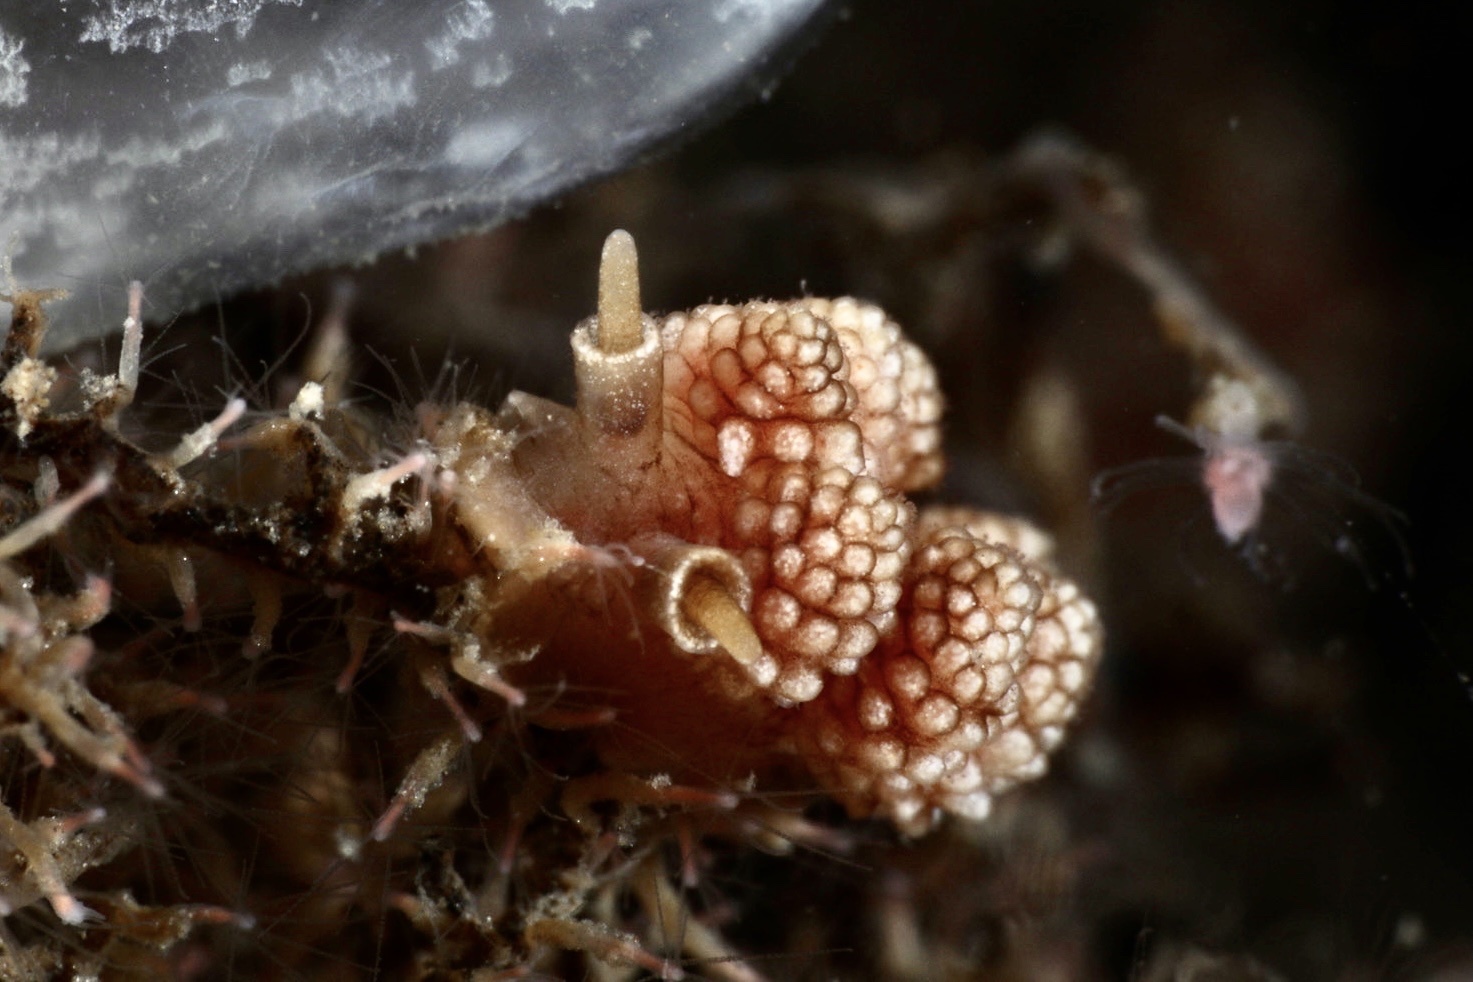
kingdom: Animalia
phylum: Mollusca
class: Gastropoda
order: Nudibranchia
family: Dotidae
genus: Doto
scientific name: Doto fragilis
